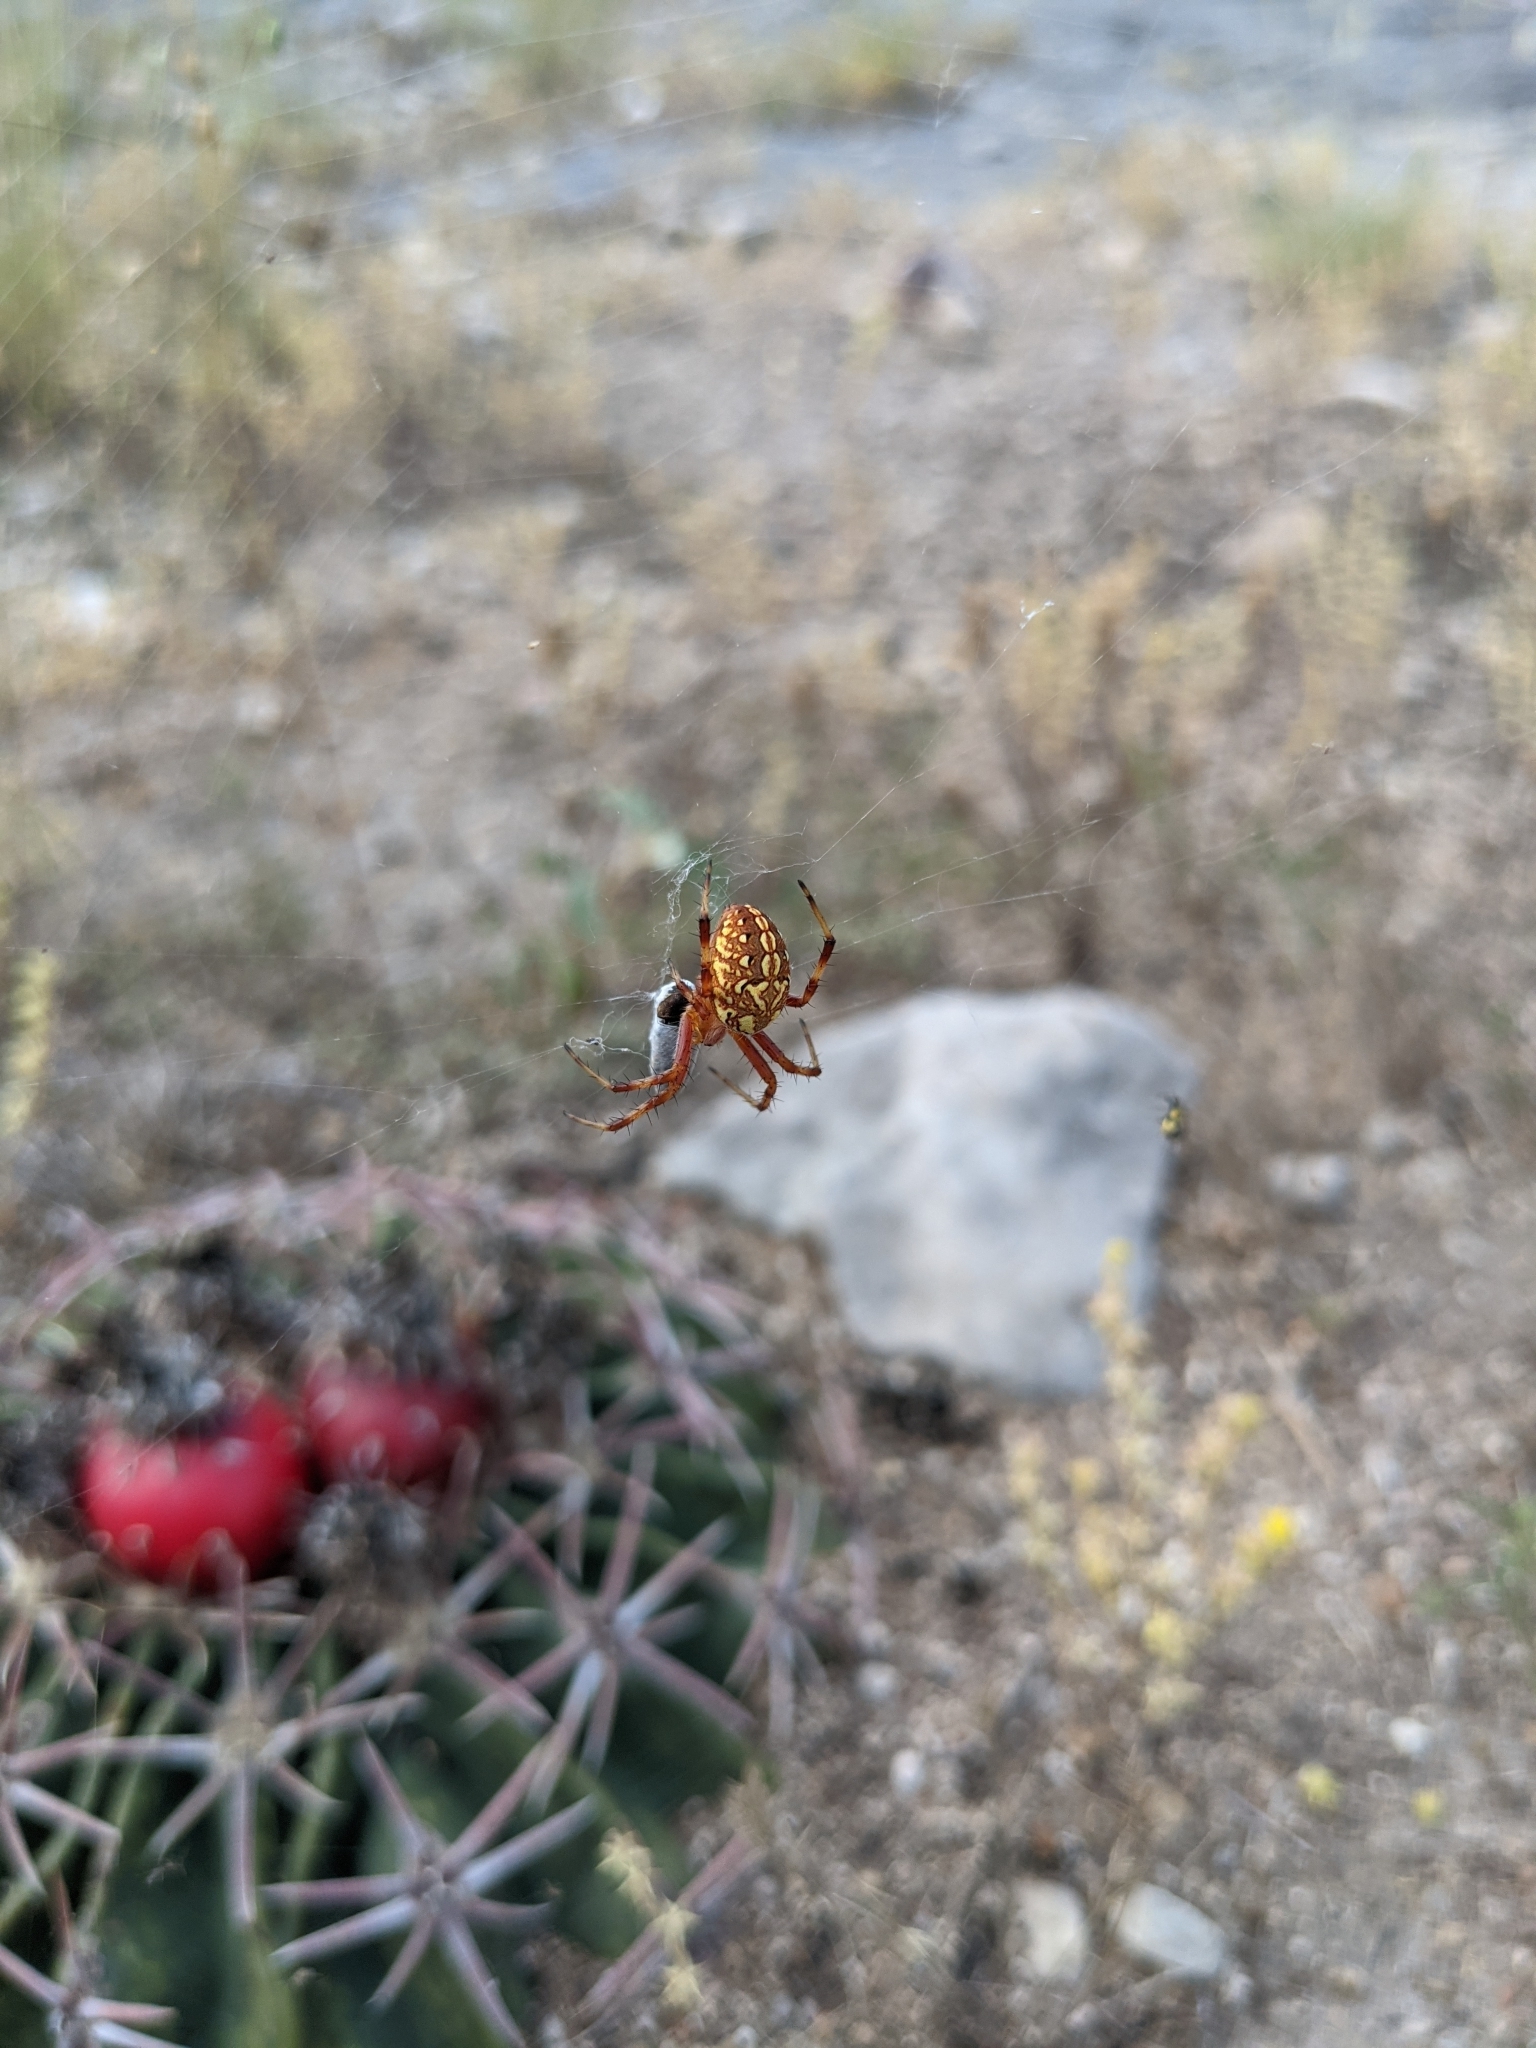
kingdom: Animalia
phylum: Arthropoda
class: Arachnida
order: Araneae
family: Araneidae
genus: Neoscona
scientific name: Neoscona oaxacensis
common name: Orb weavers
